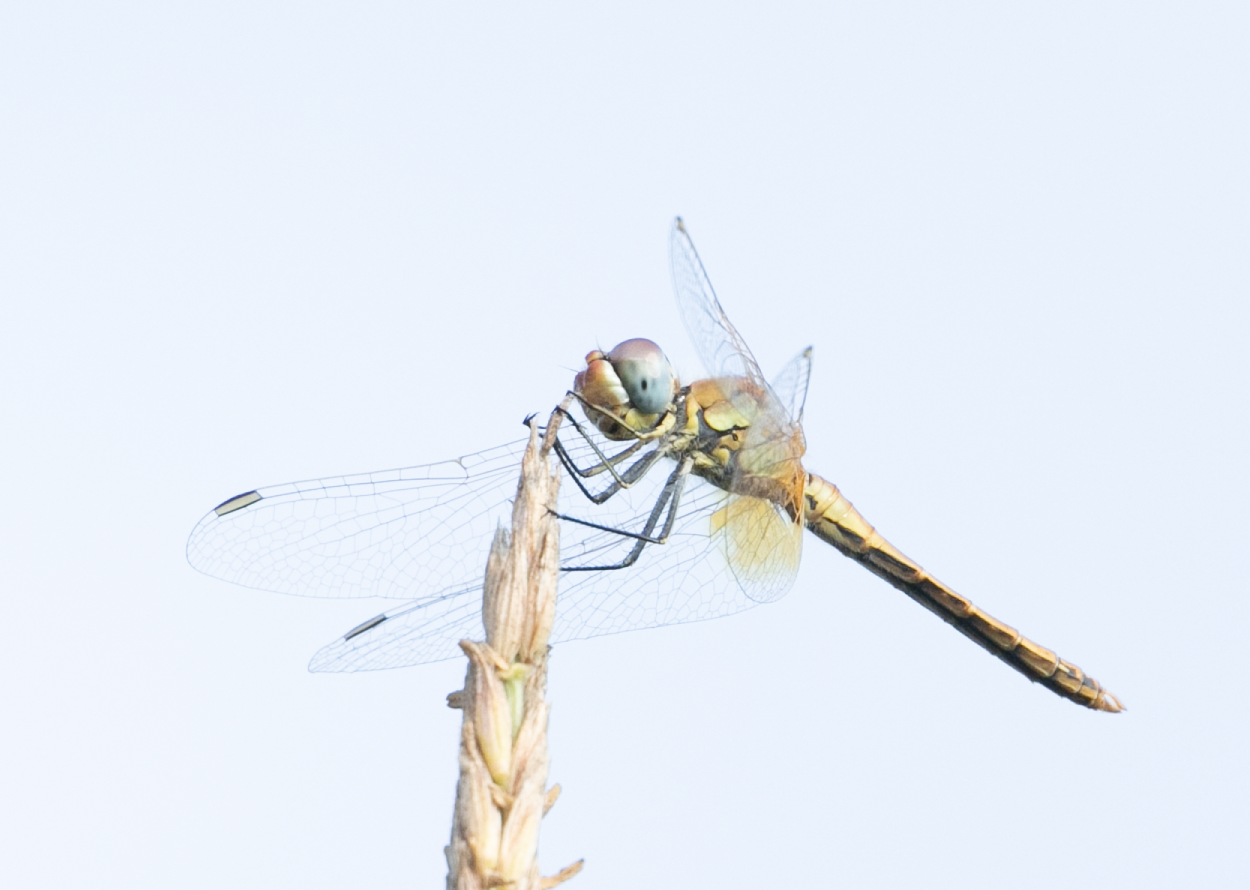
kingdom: Animalia
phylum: Arthropoda
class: Insecta
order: Odonata
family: Libellulidae
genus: Sympetrum
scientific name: Sympetrum fonscolombii
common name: Red-veined darter
